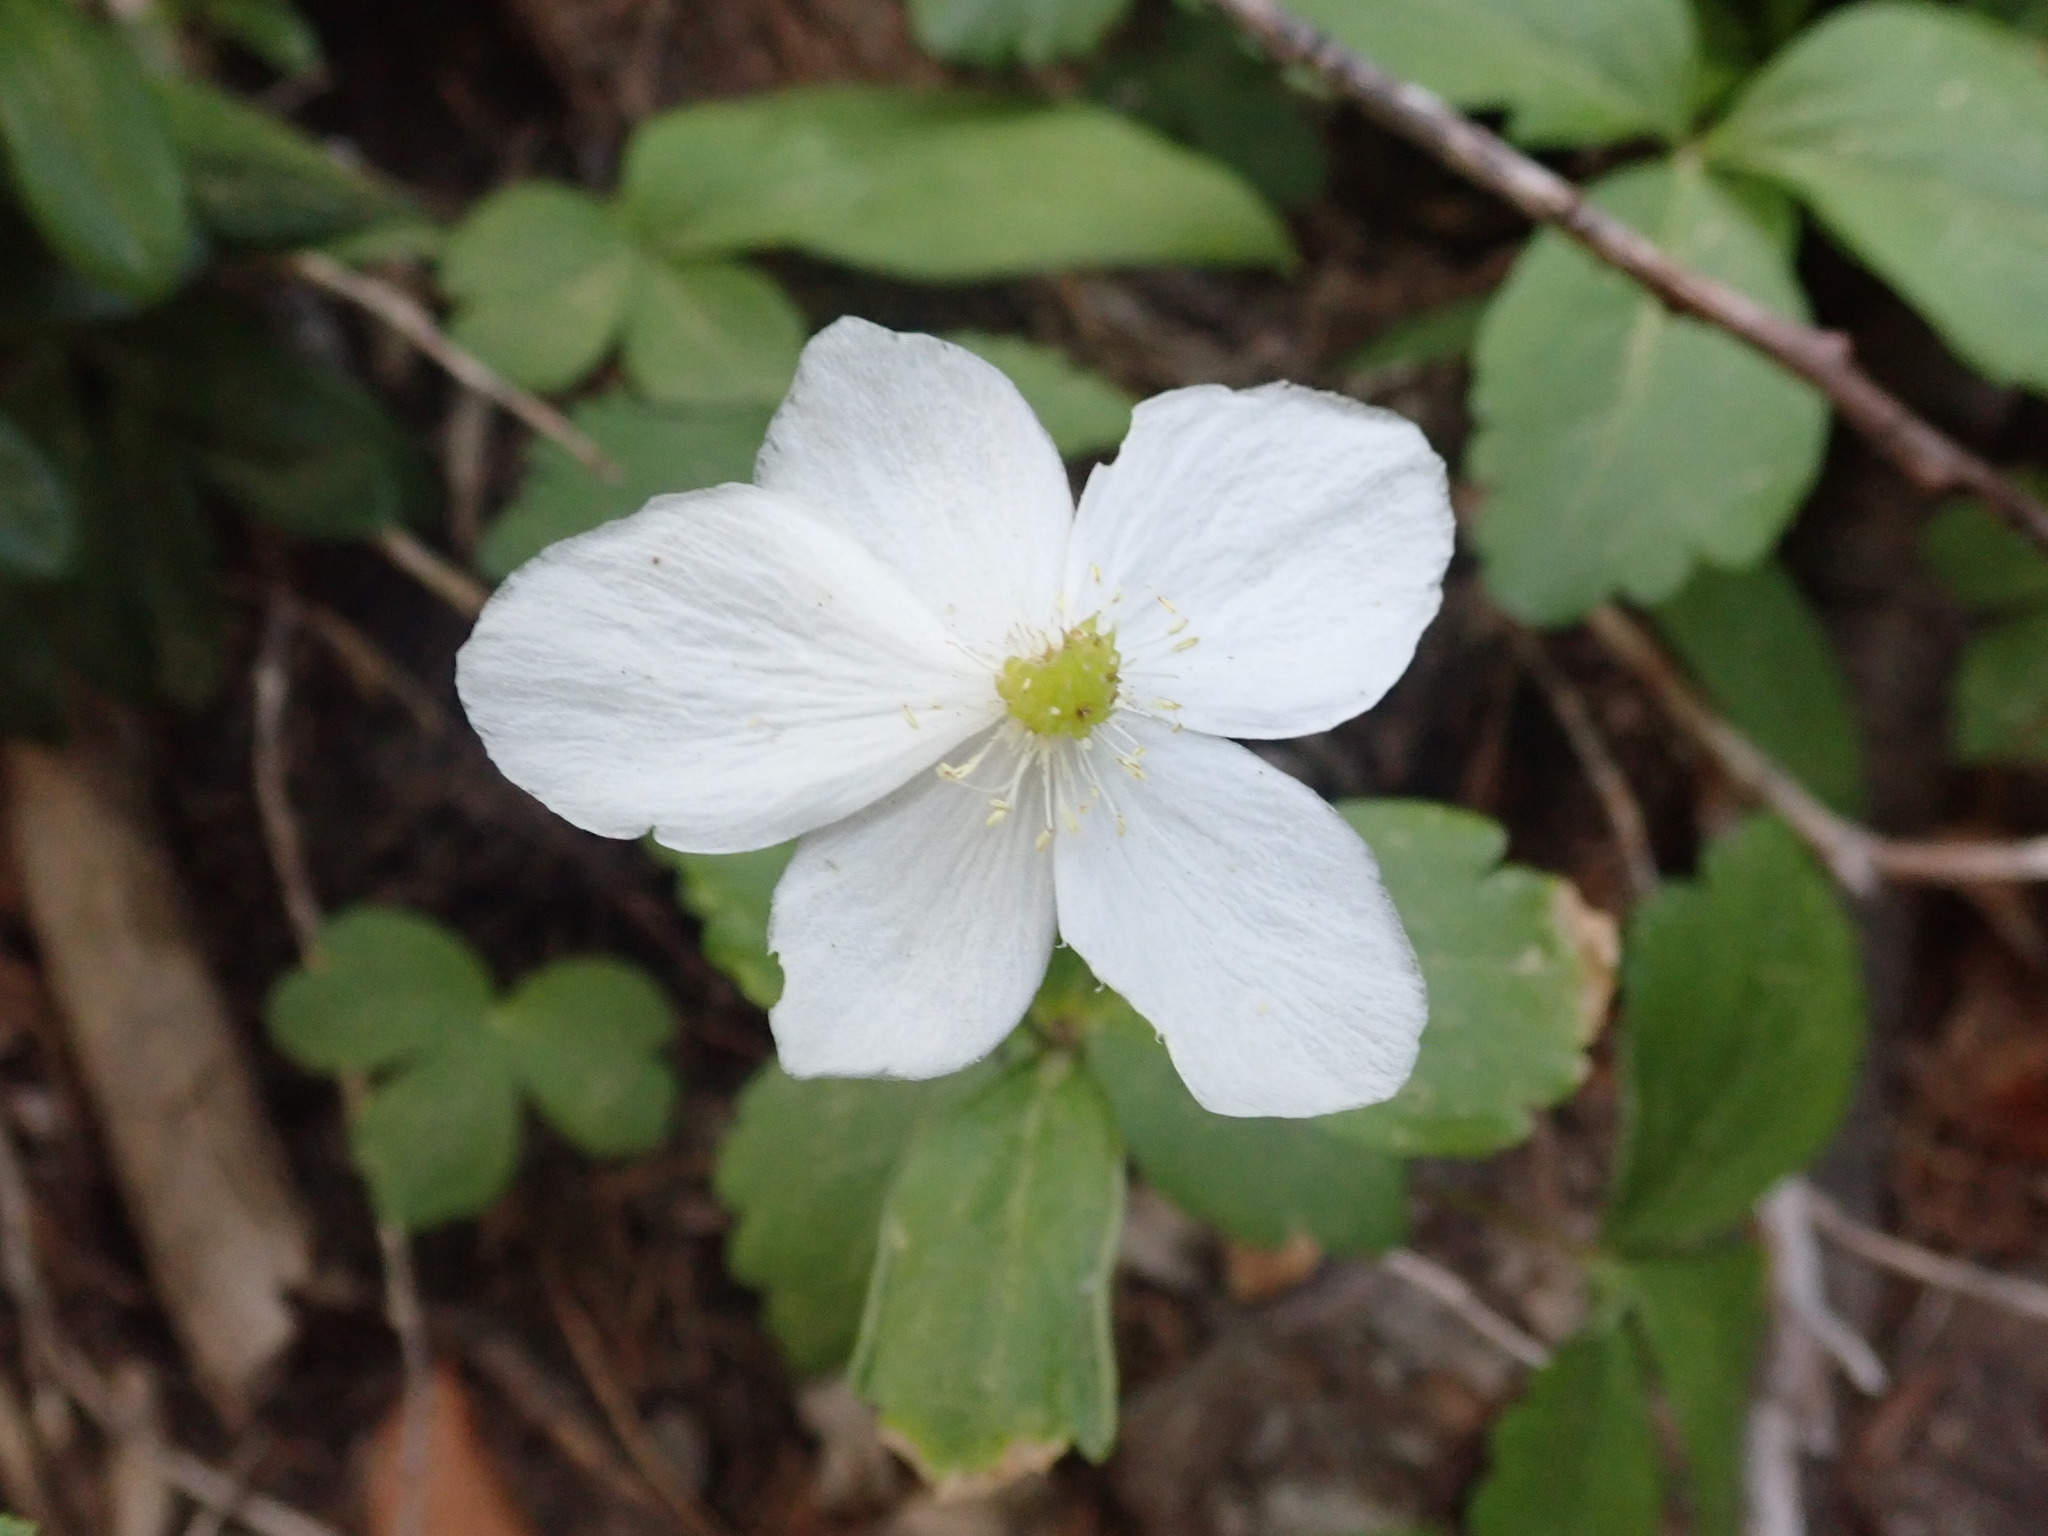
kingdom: Plantae
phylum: Tracheophyta
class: Magnoliopsida
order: Ranunculales
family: Ranunculaceae
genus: Anemonastrum
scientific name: Anemonastrum deltoideum
